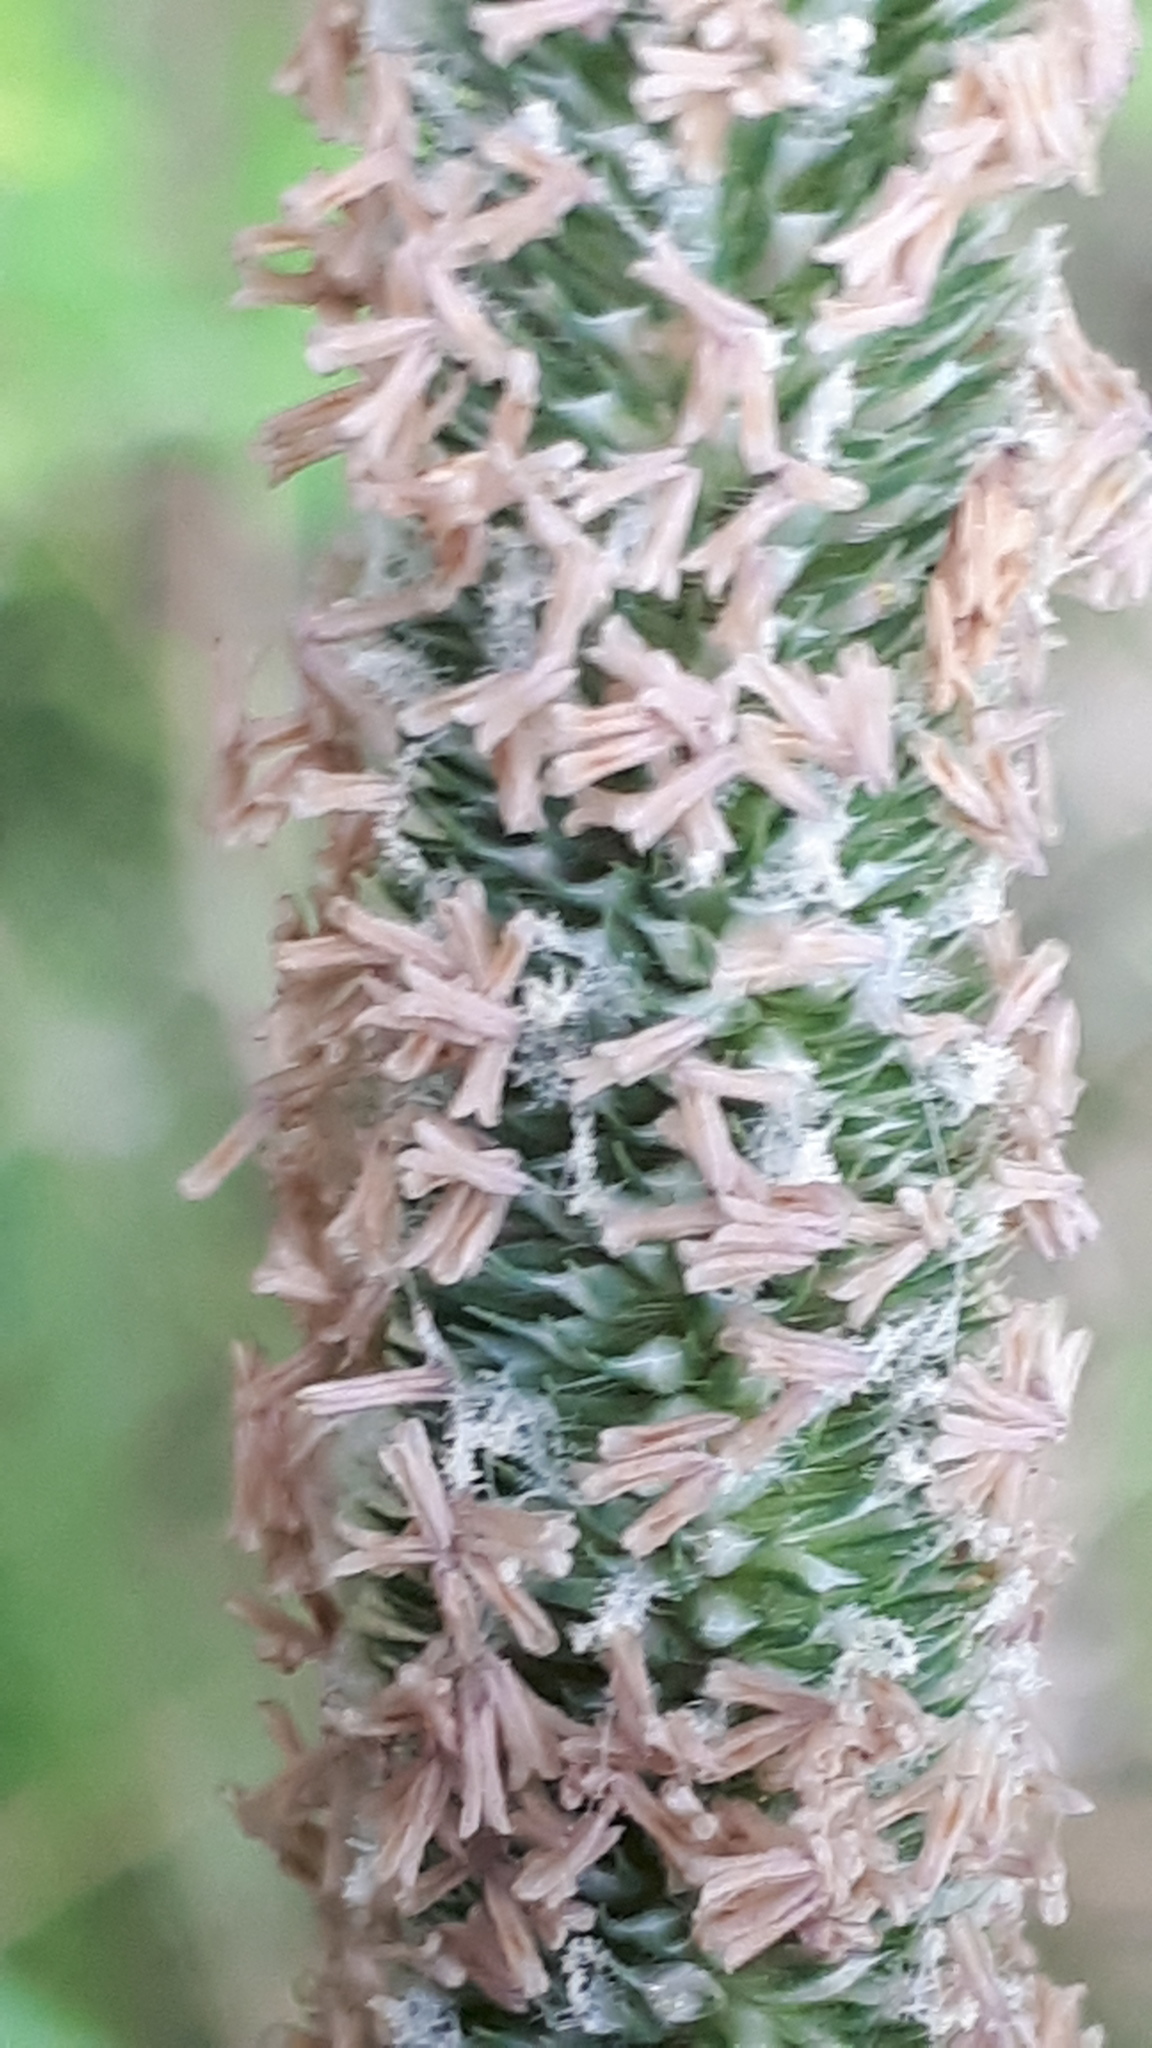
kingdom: Plantae
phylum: Tracheophyta
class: Liliopsida
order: Poales
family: Poaceae
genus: Phleum
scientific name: Phleum pratense
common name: Timothy grass
